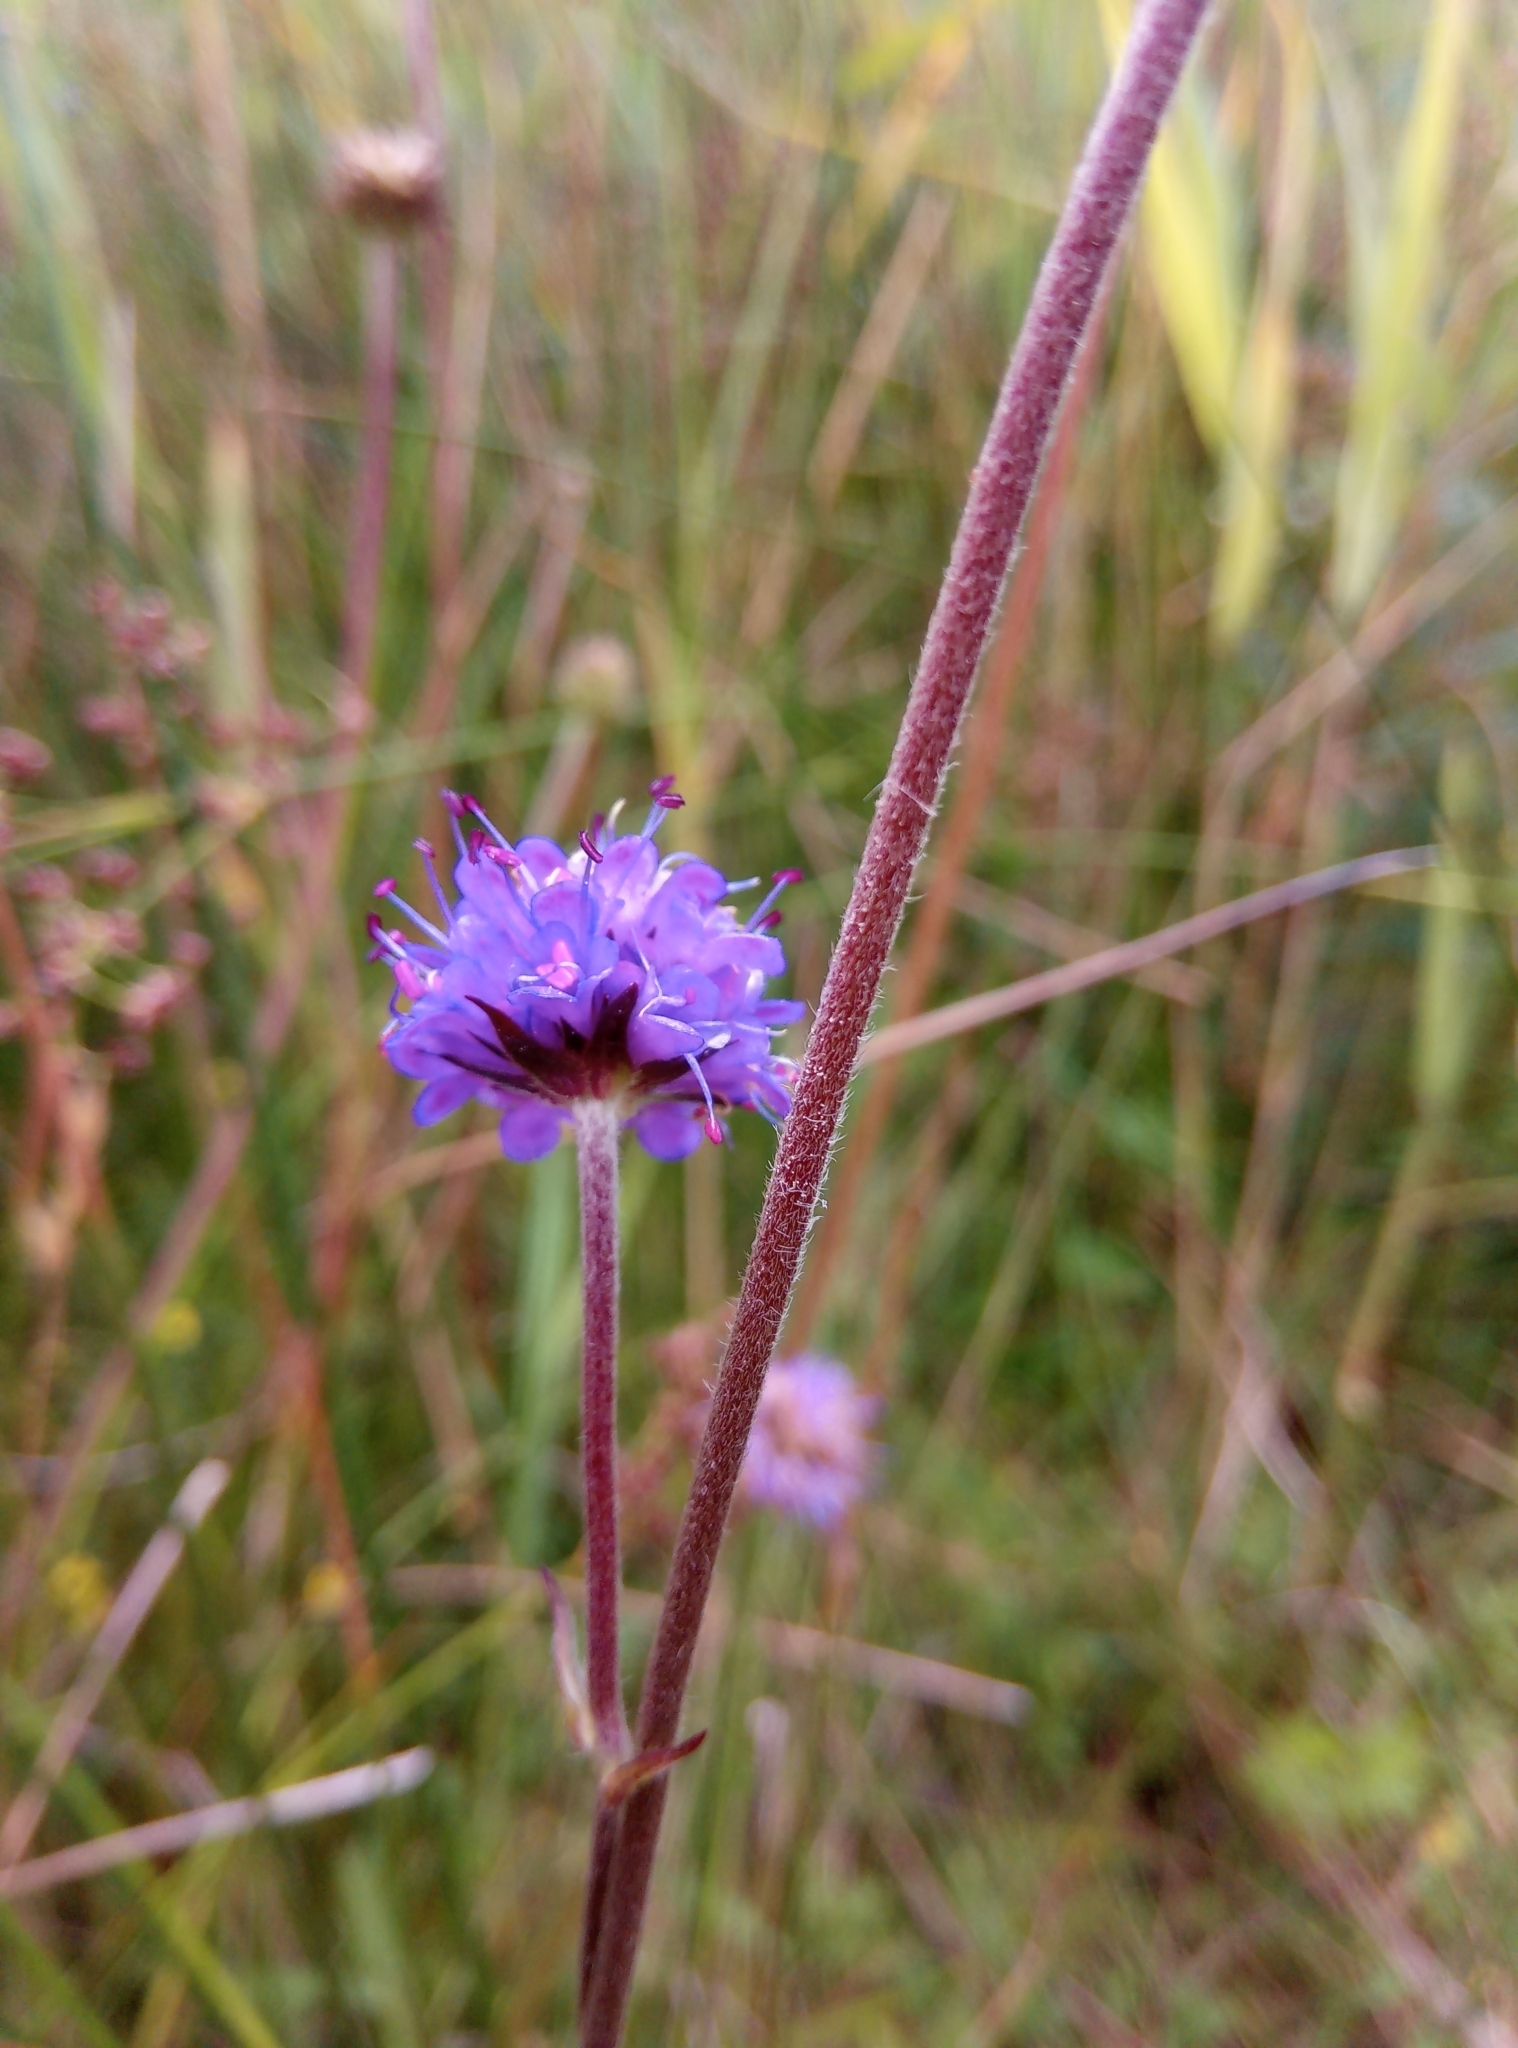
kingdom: Plantae
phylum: Tracheophyta
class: Magnoliopsida
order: Dipsacales
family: Caprifoliaceae
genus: Succisa
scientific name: Succisa pratensis
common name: Devil's-bit
